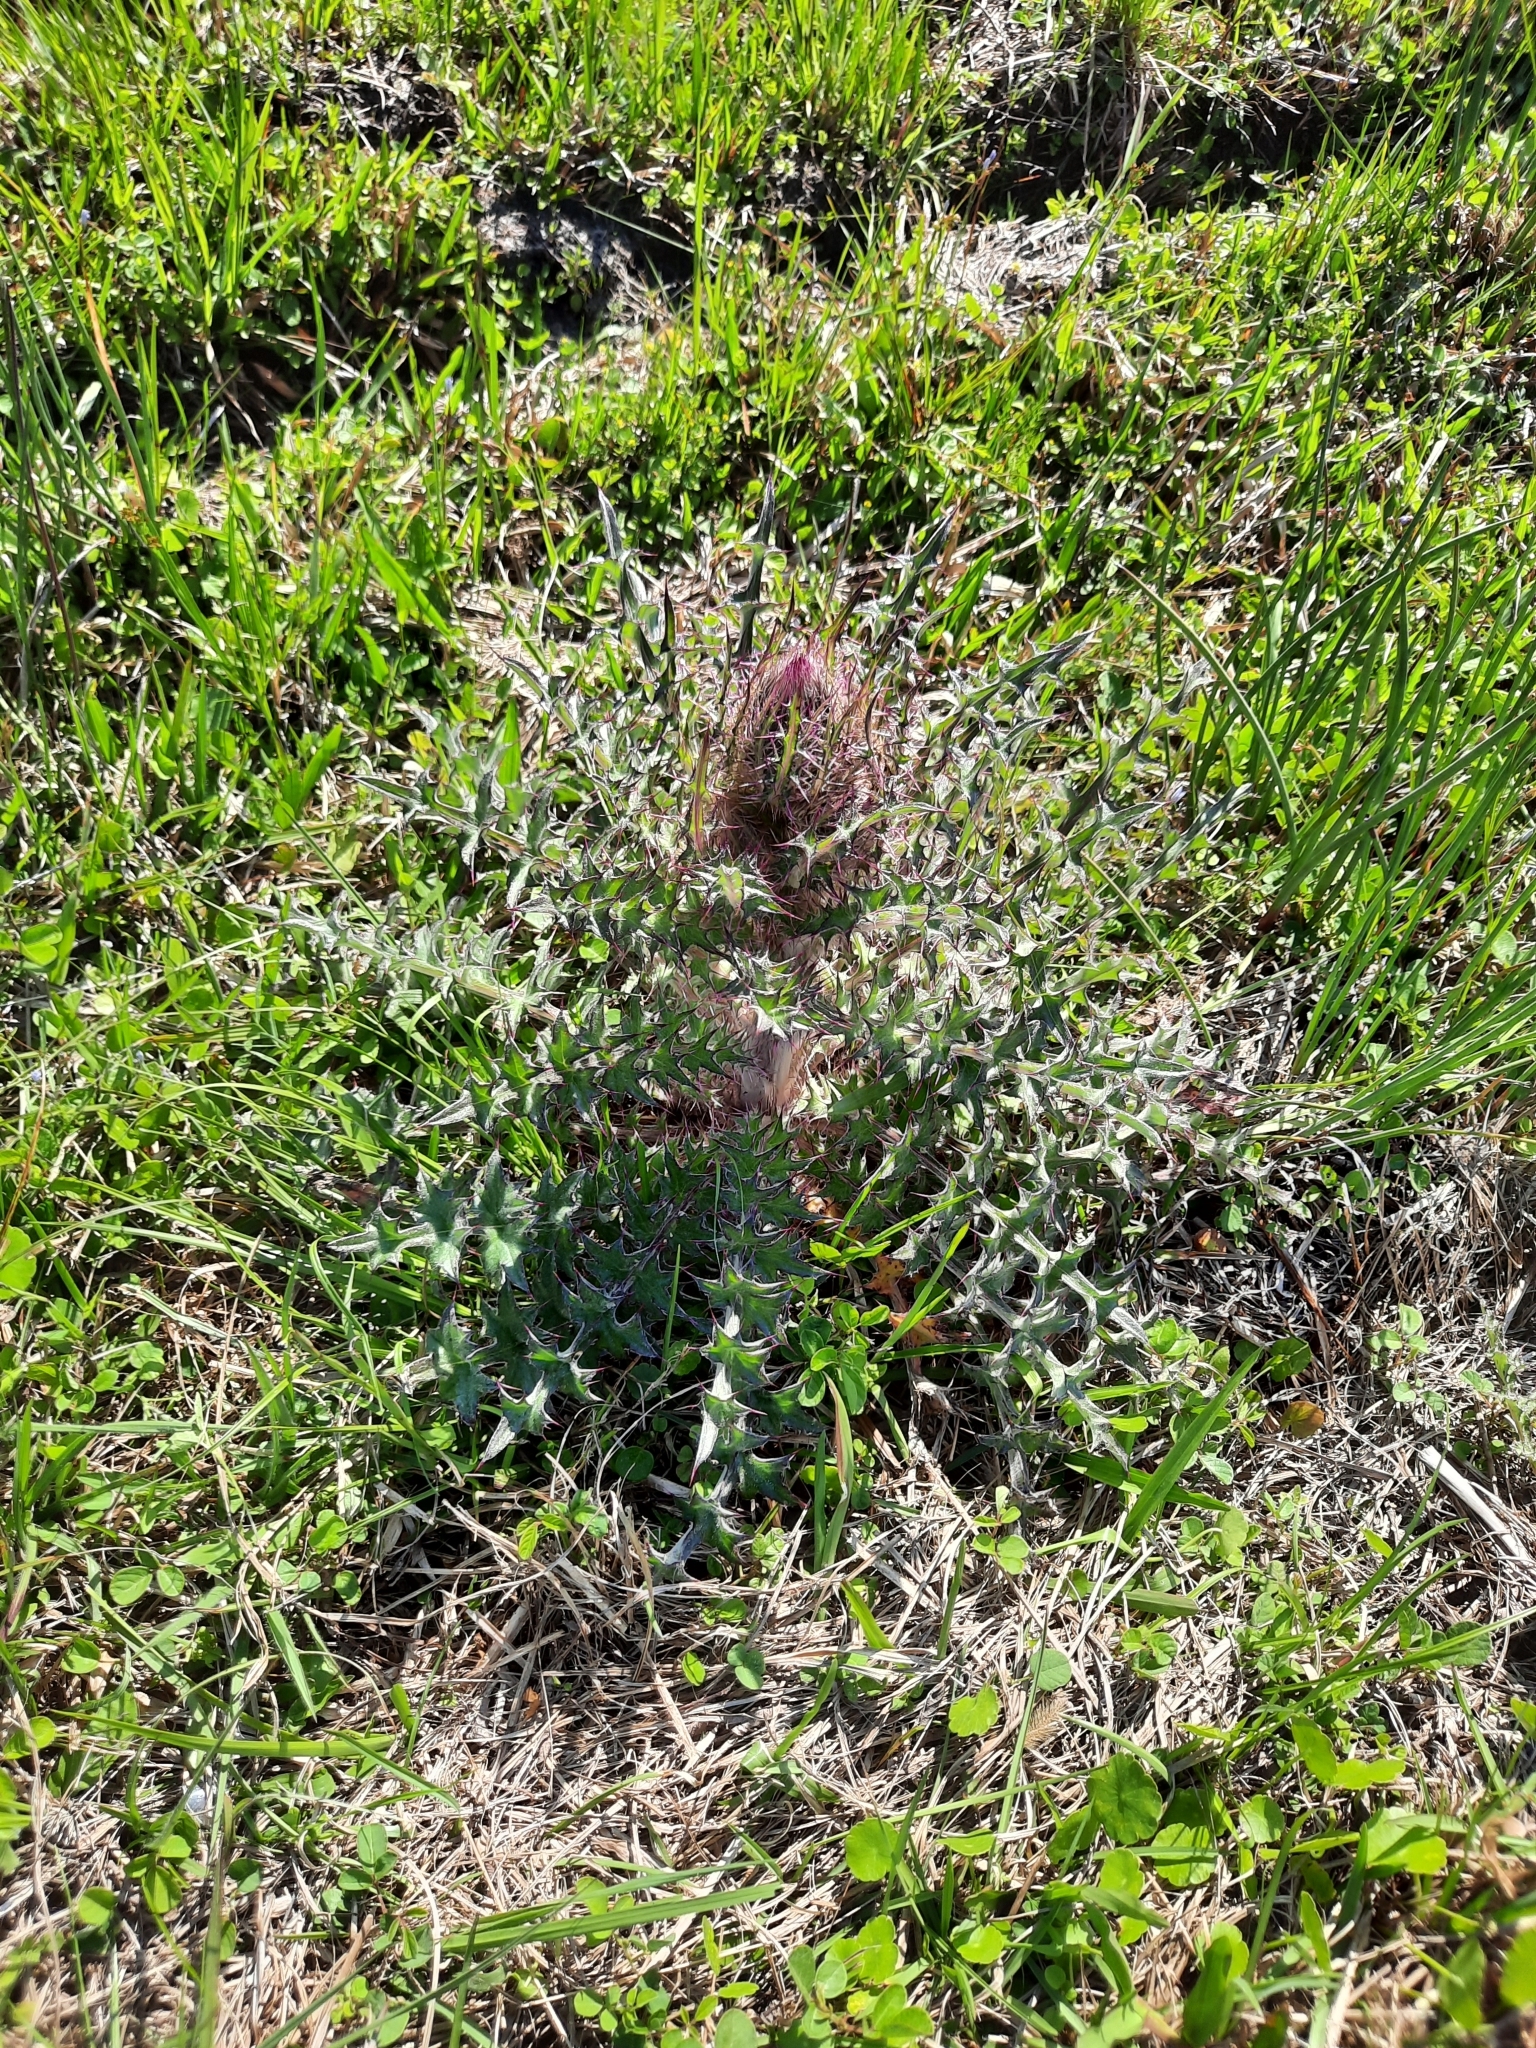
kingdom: Plantae
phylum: Tracheophyta
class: Magnoliopsida
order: Asterales
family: Asteraceae
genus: Cirsium
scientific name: Cirsium horridulum
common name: Bristly thistle
